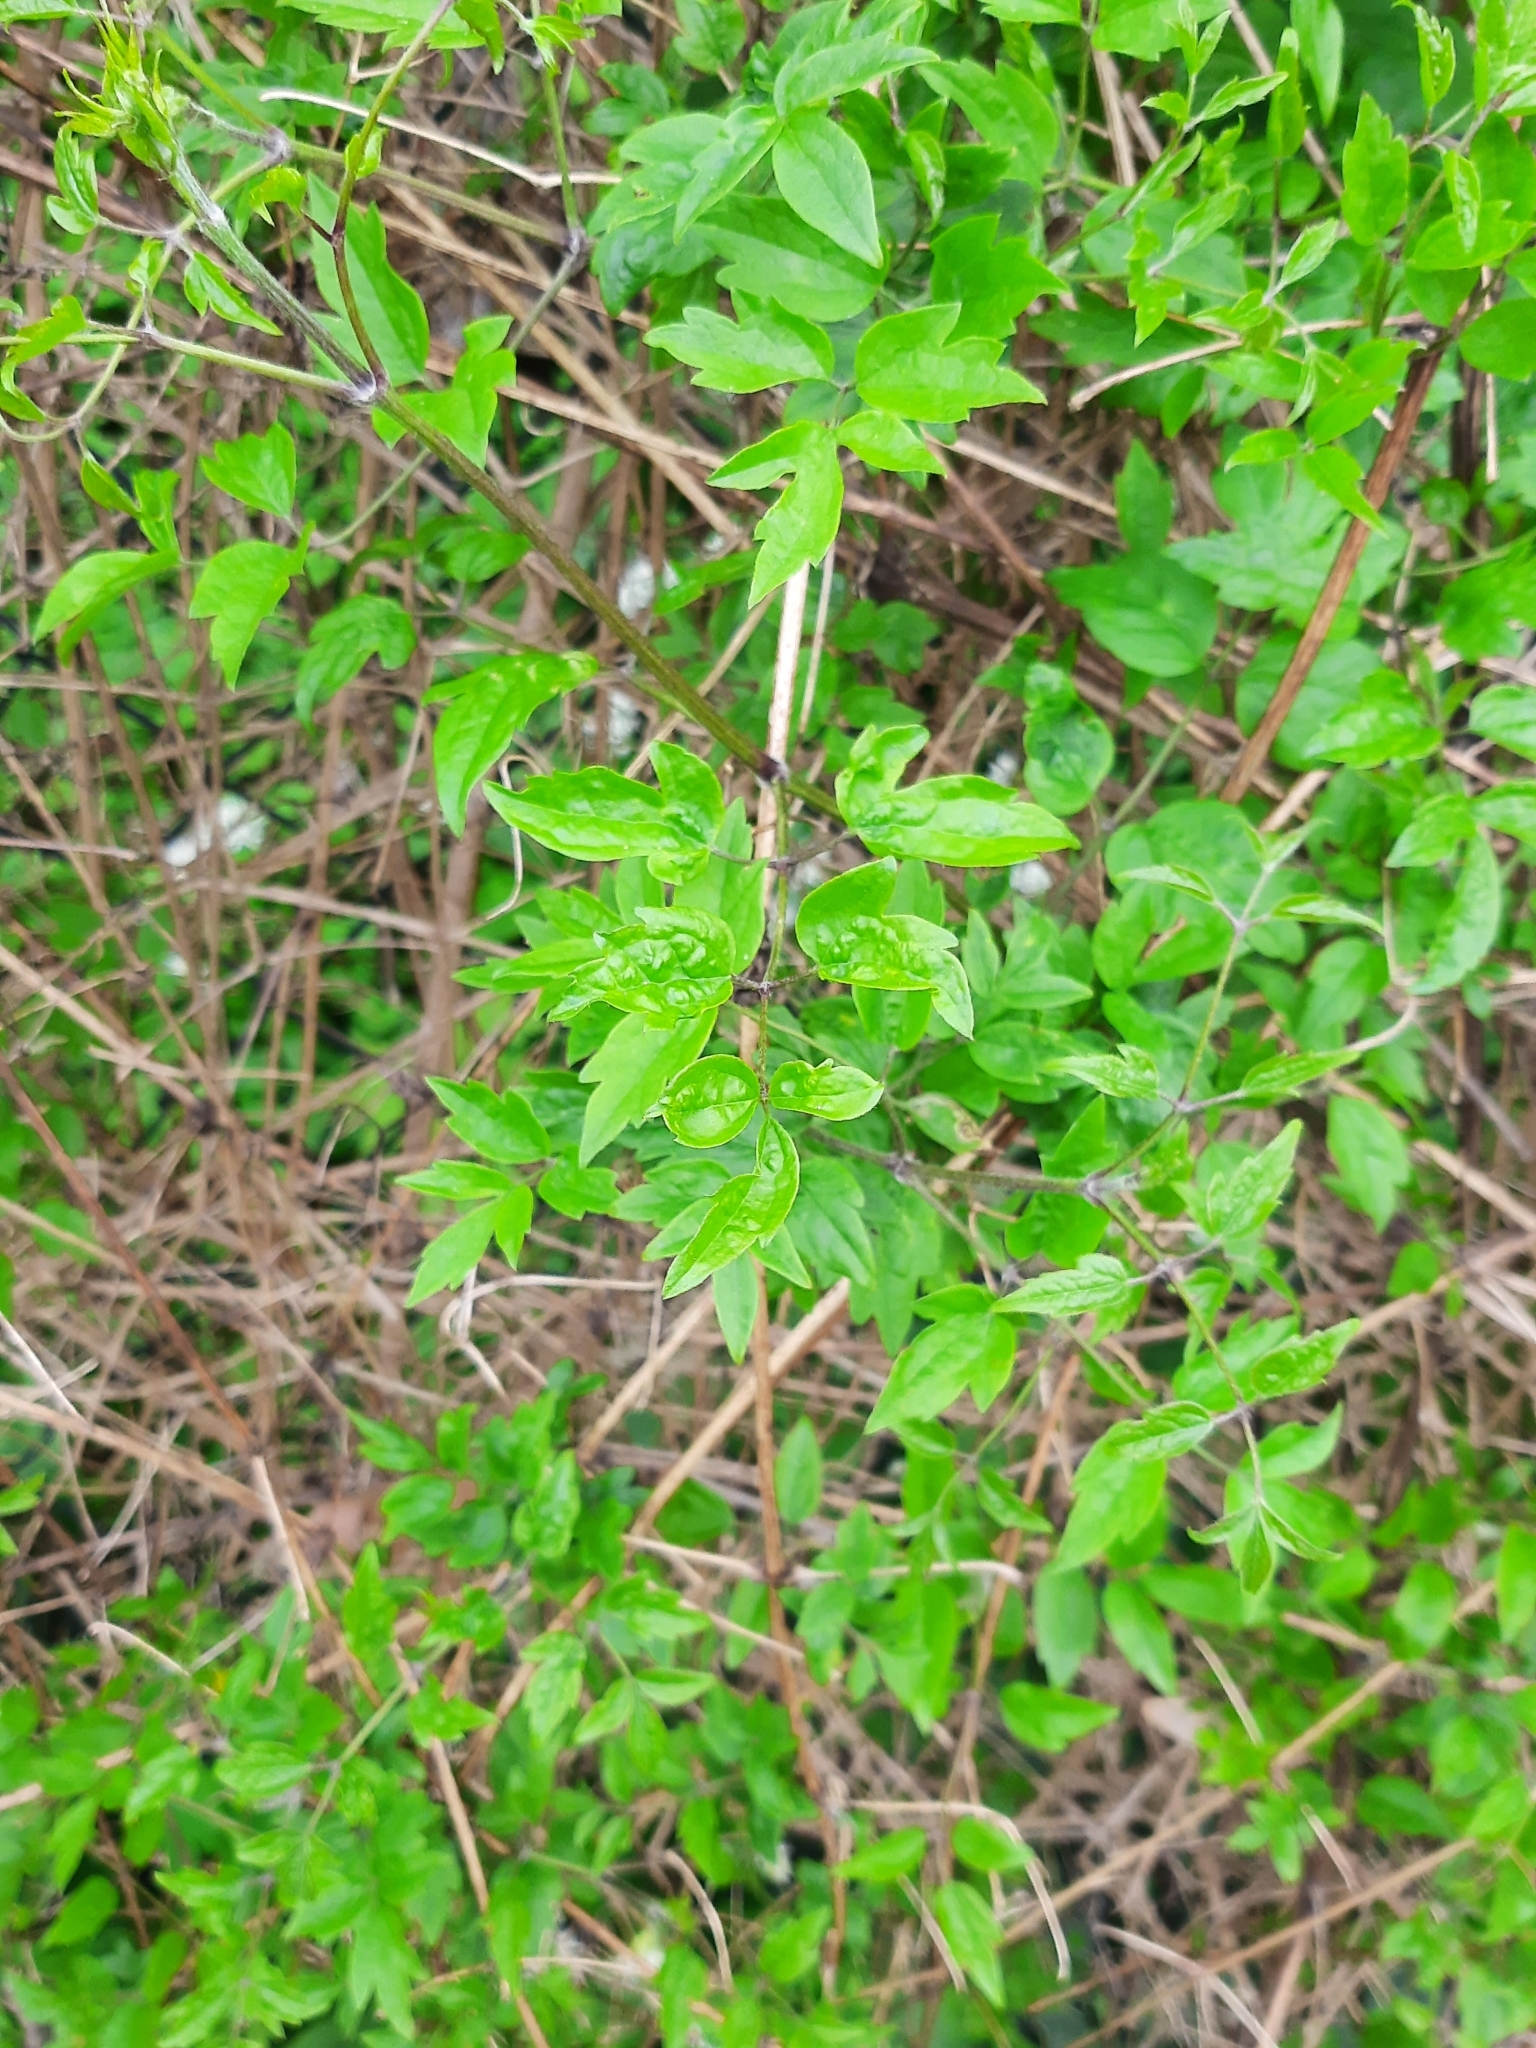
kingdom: Plantae
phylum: Tracheophyta
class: Magnoliopsida
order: Ranunculales
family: Ranunculaceae
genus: Clematis
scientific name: Clematis vitalba
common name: Evergreen clematis
